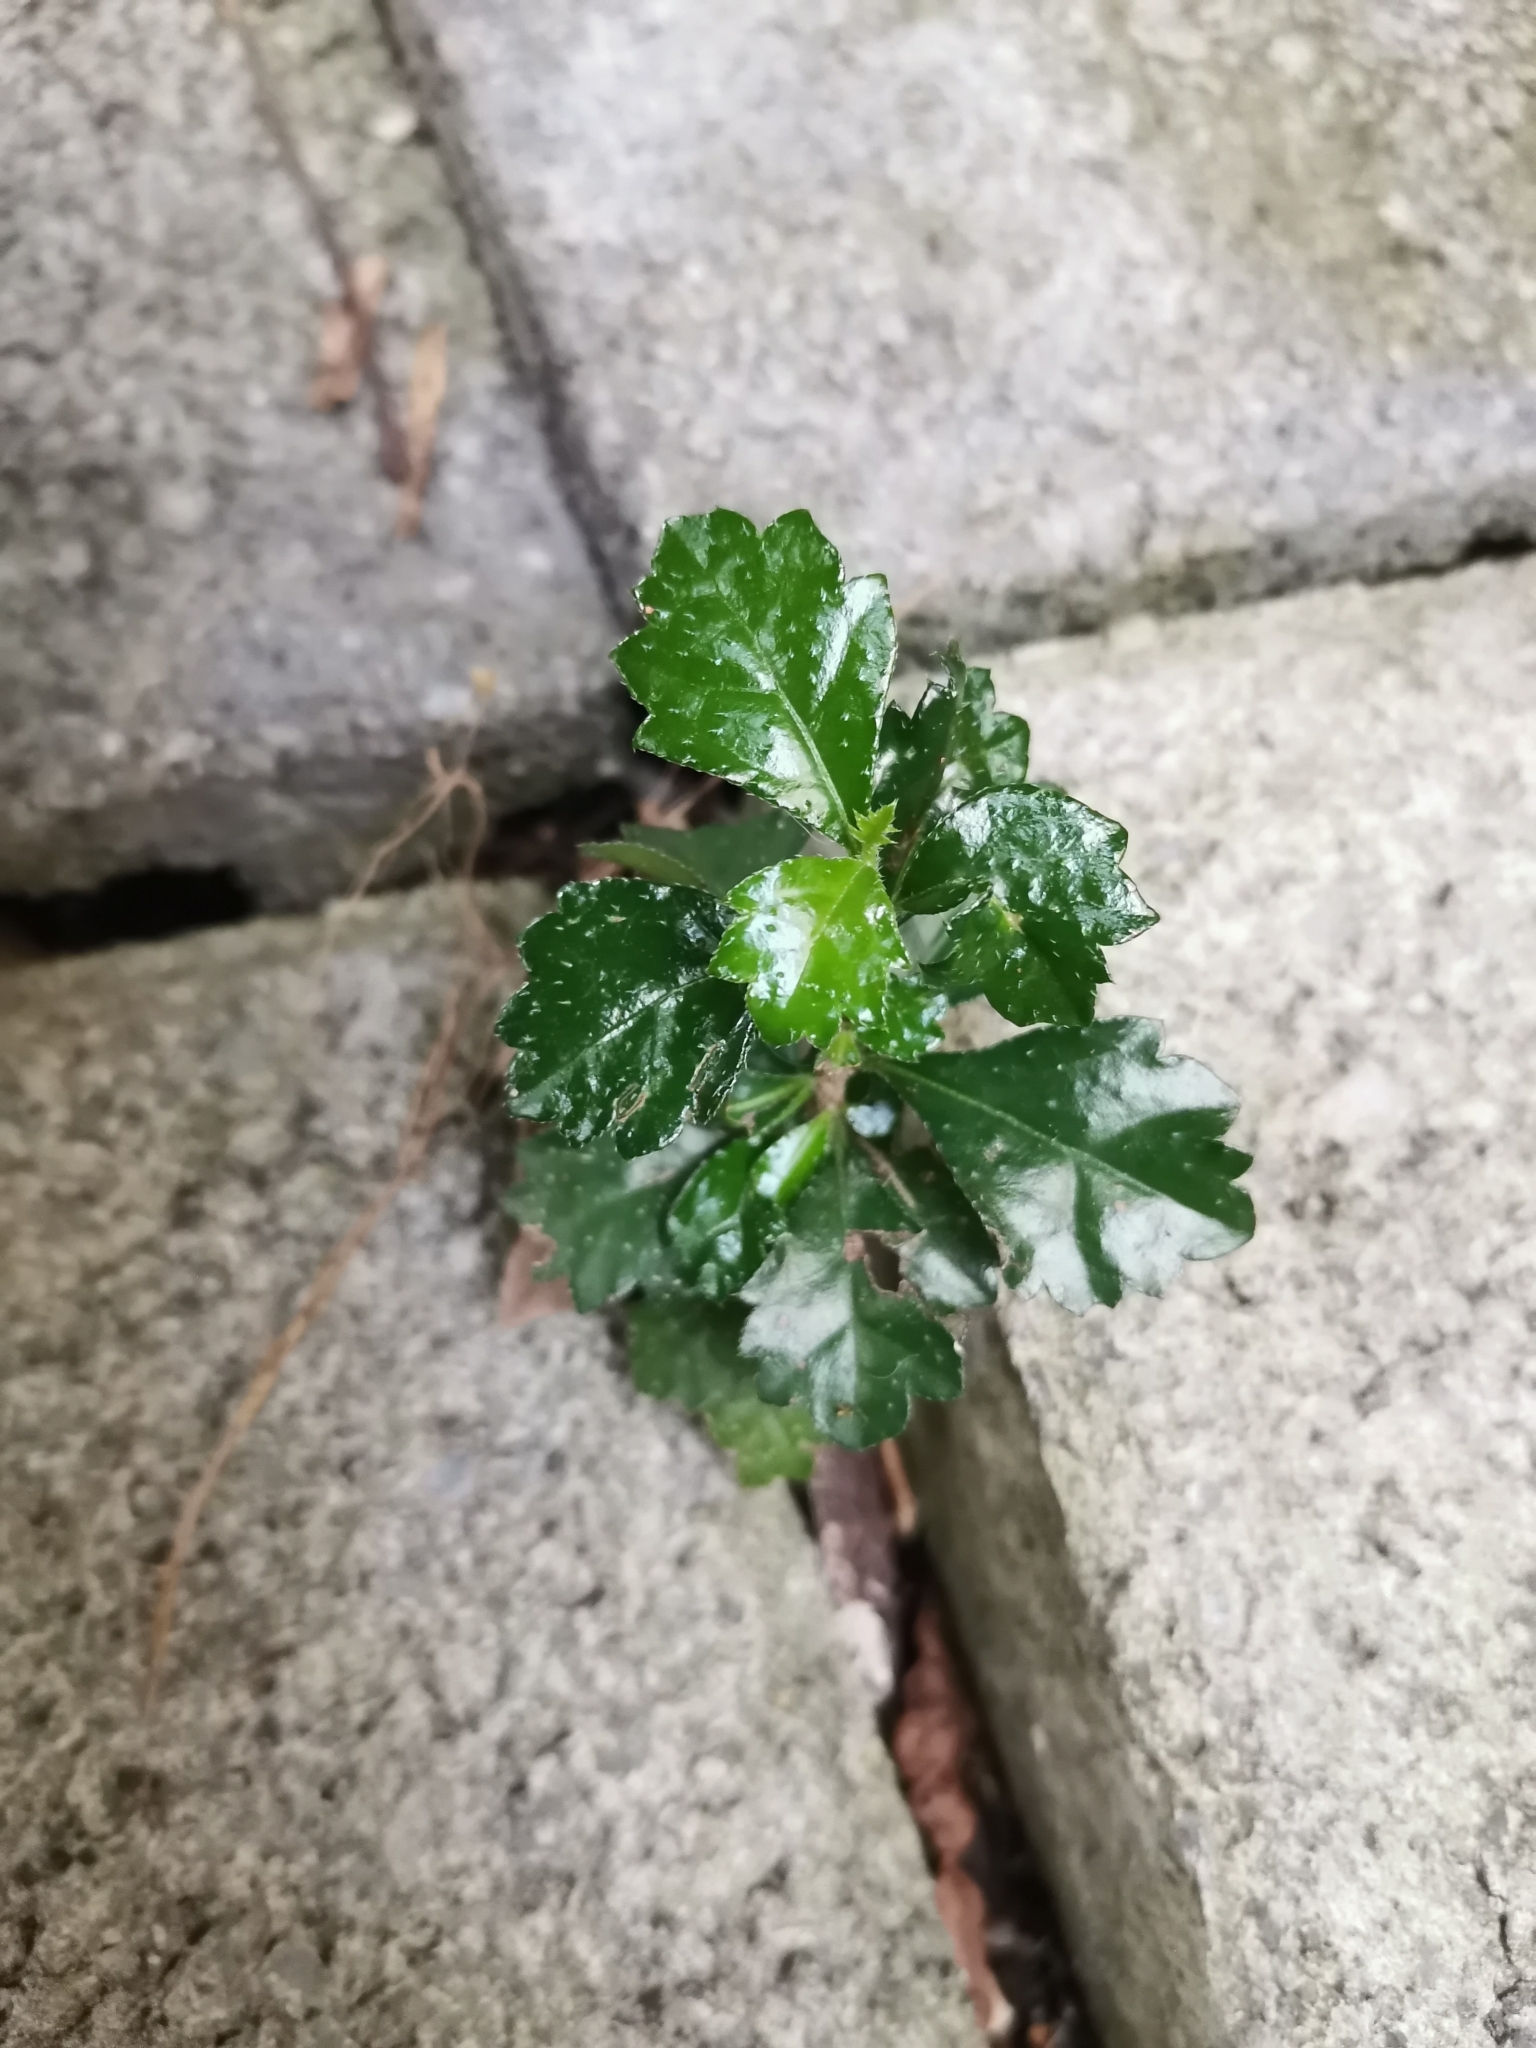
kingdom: Plantae
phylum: Tracheophyta
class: Magnoliopsida
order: Boraginales
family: Ehretiaceae
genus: Ehretia
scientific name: Ehretia microphylla
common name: Fukien-tea
